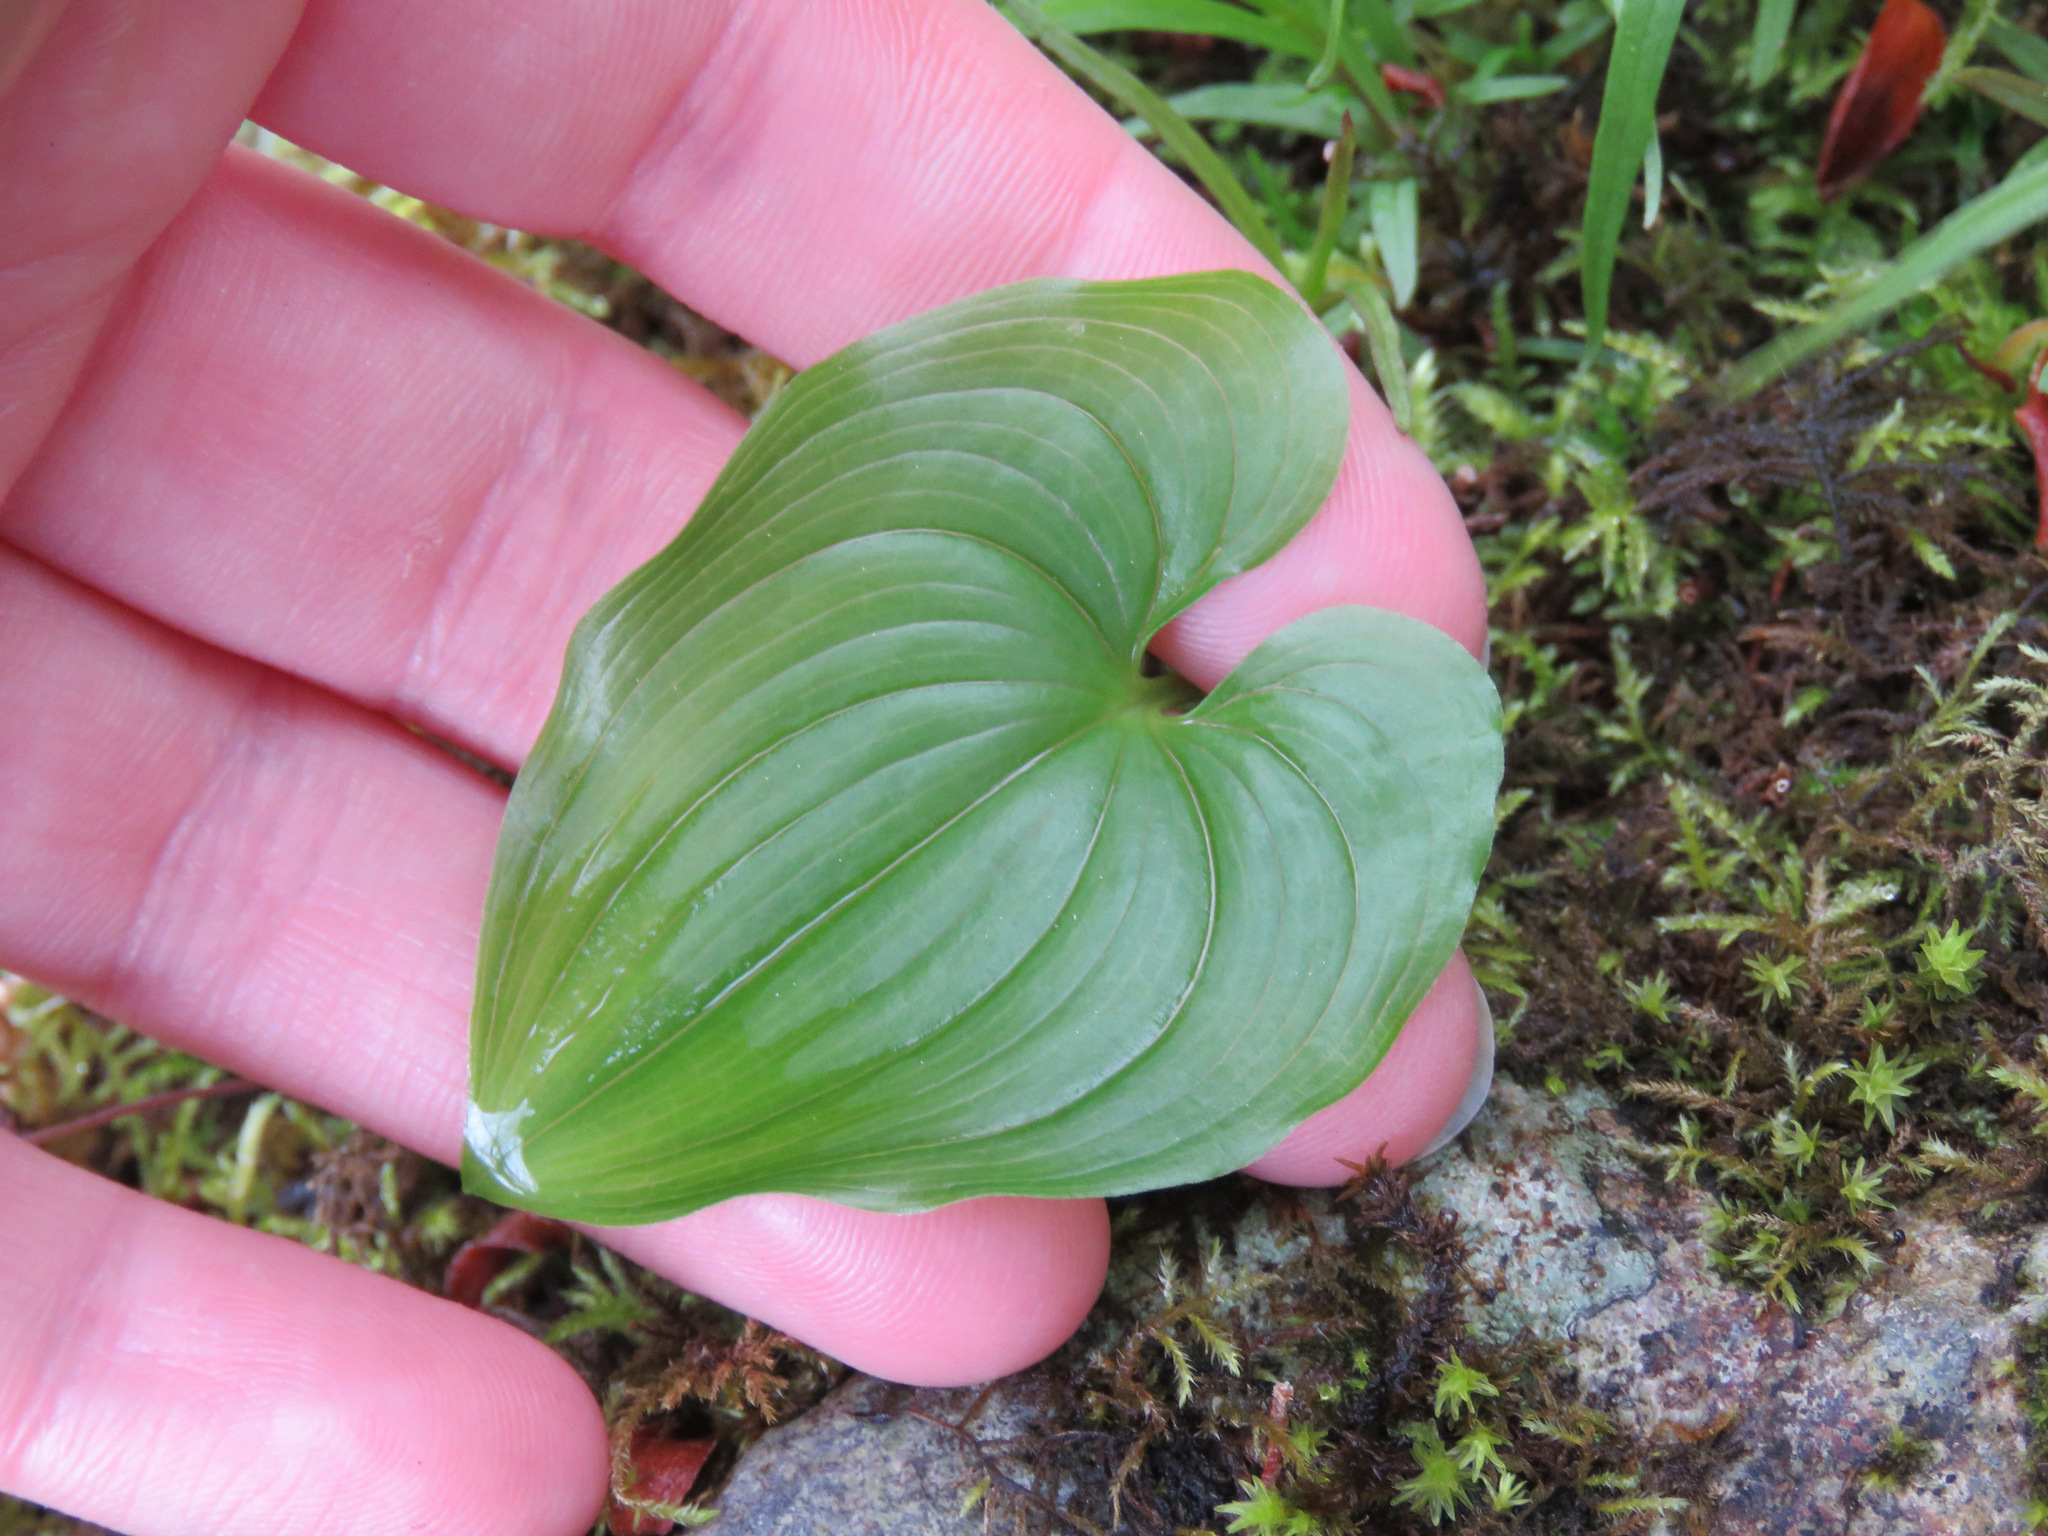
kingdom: Plantae
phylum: Tracheophyta
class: Liliopsida
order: Asparagales
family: Asparagaceae
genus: Maianthemum
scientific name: Maianthemum dilatatum
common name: False lily-of-the-valley
